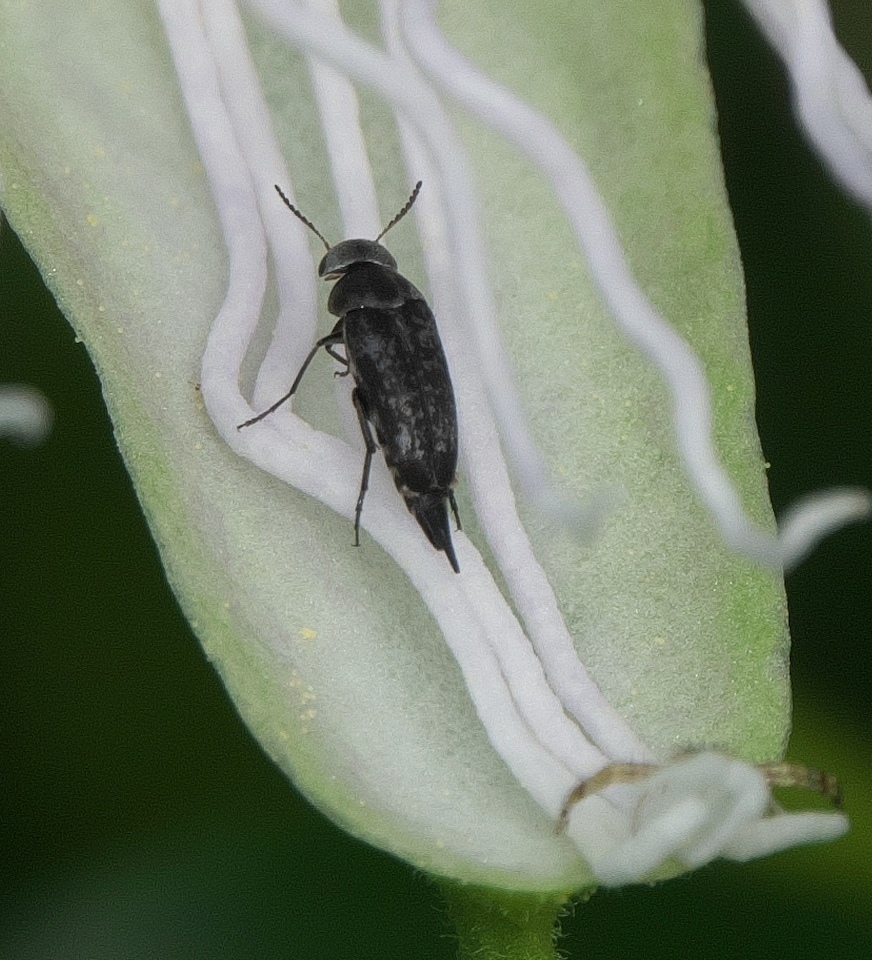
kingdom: Animalia
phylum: Arthropoda
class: Insecta
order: Coleoptera
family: Mordellidae
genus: Mordella
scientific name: Mordella marginata
